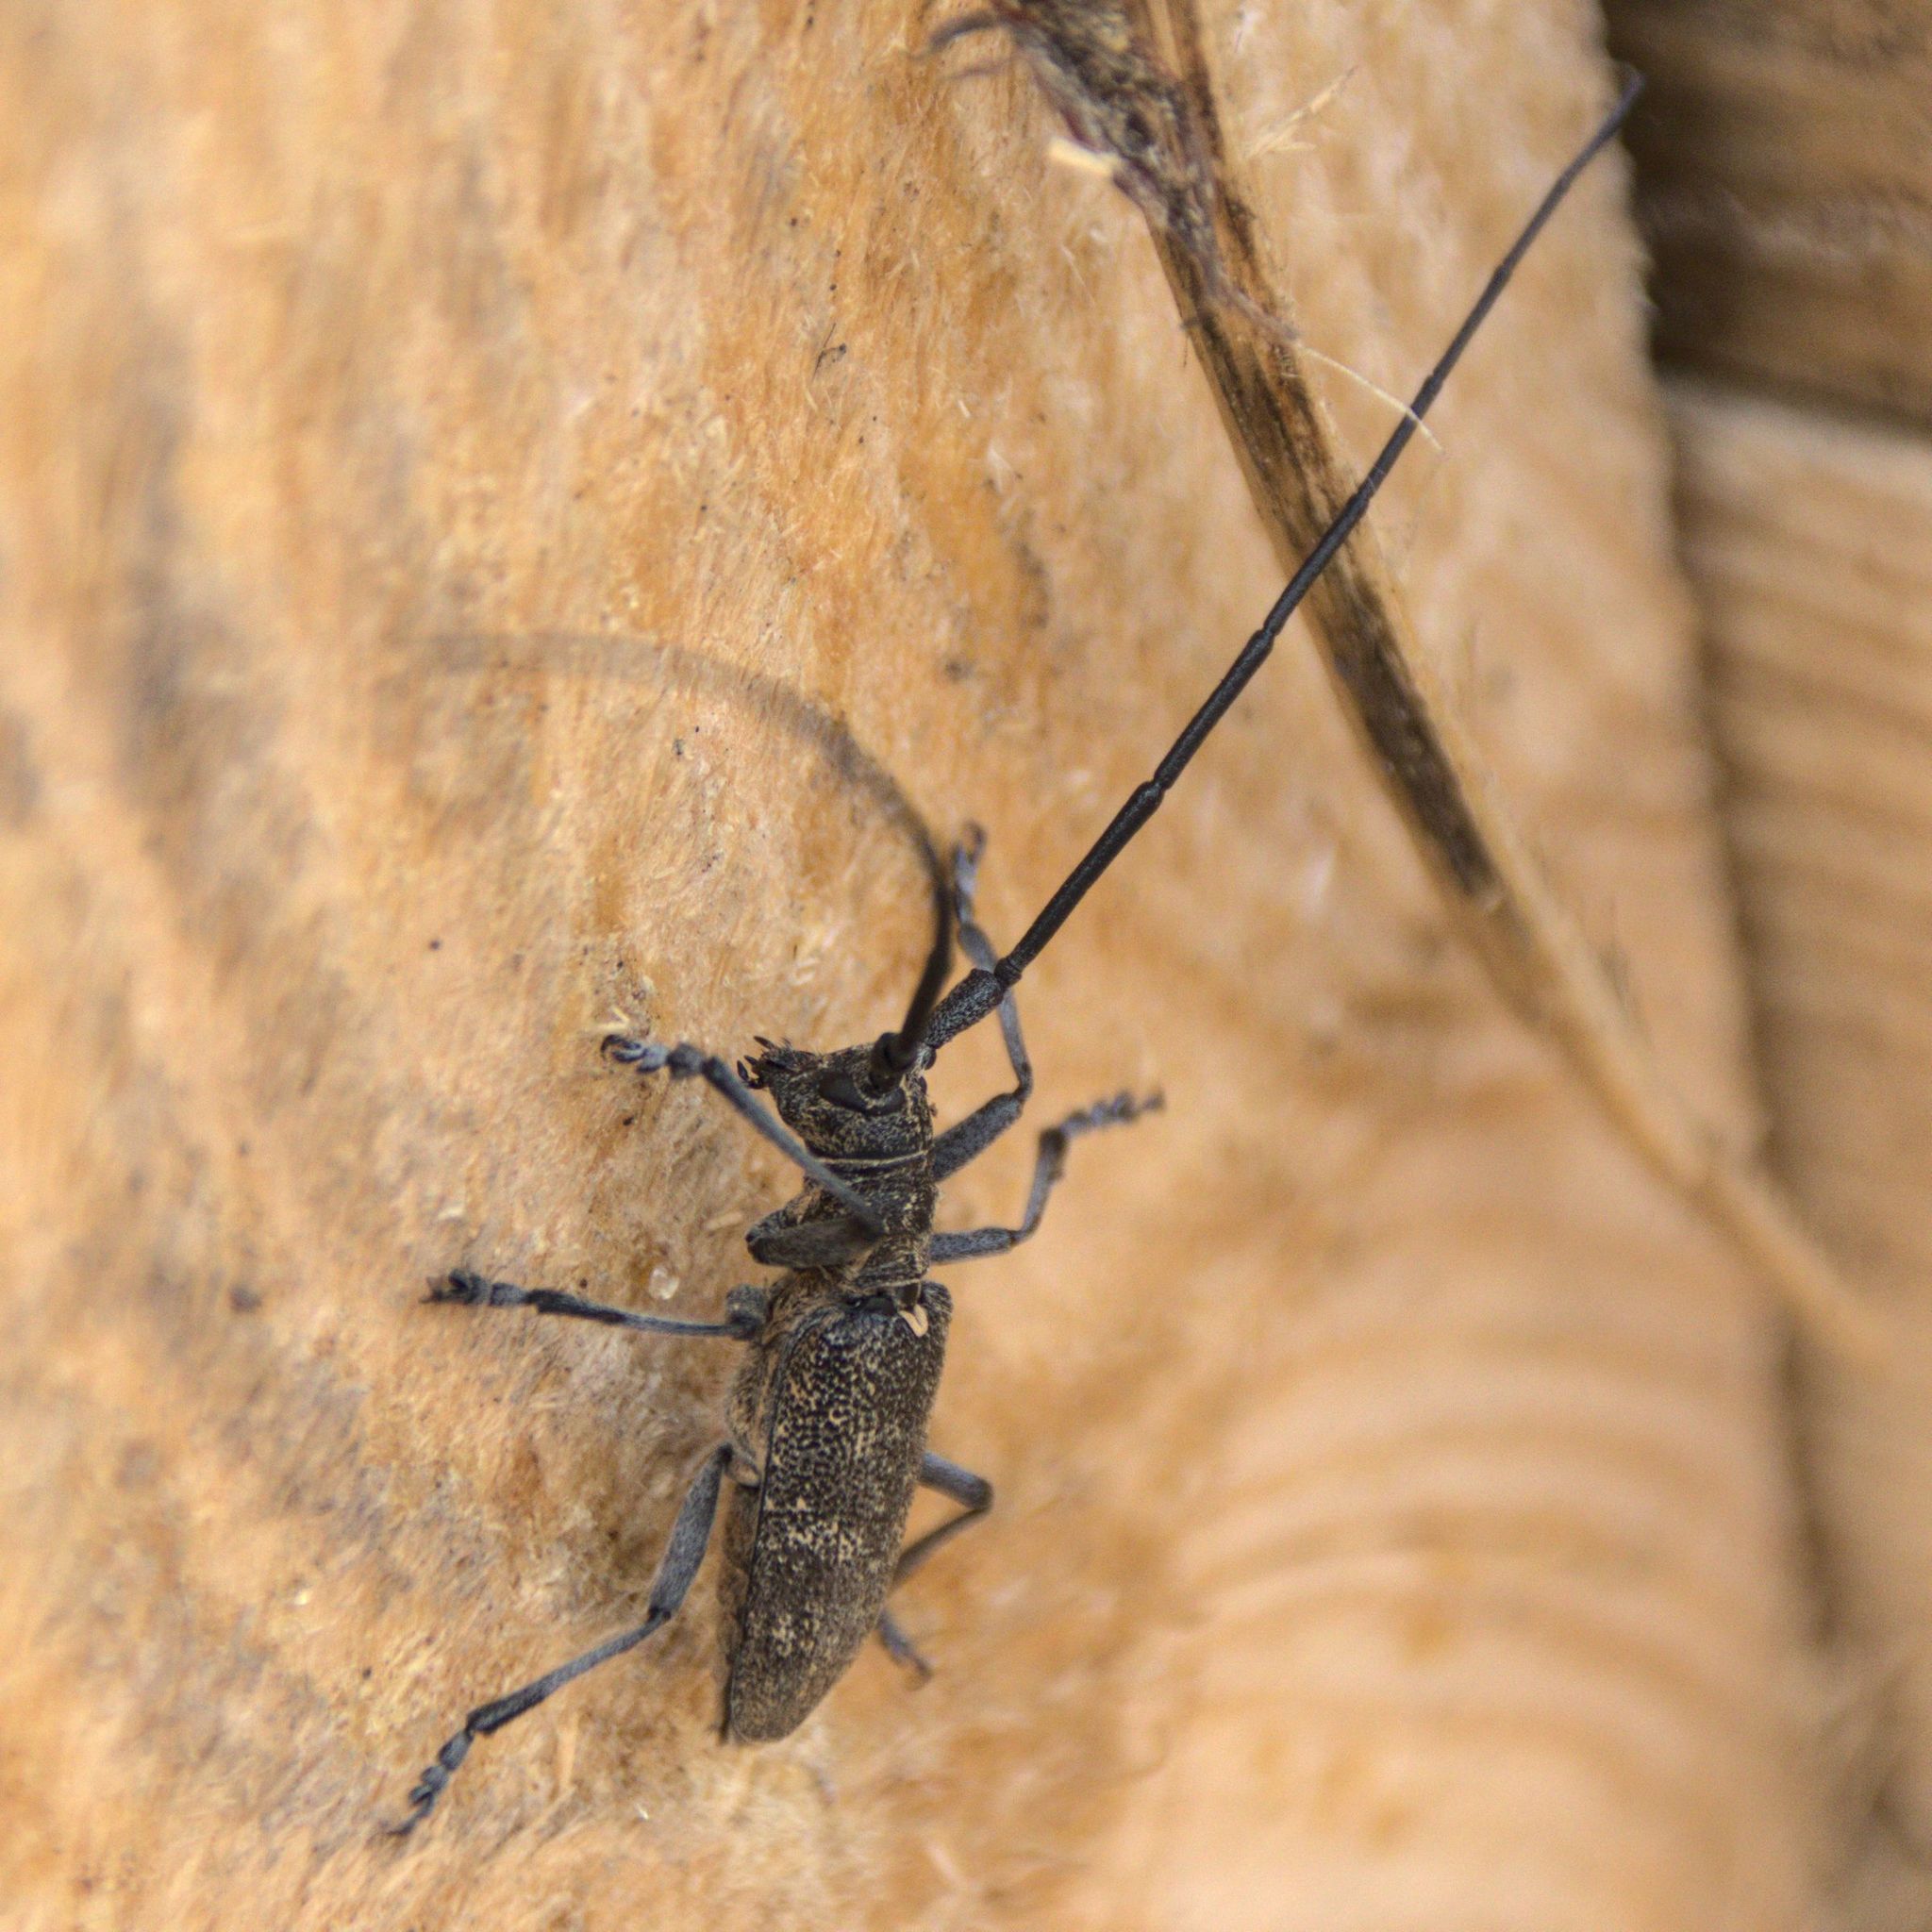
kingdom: Animalia
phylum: Arthropoda
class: Insecta
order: Coleoptera
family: Cerambycidae
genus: Monochamus
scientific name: Monochamus galloprovincialis
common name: Pine sawyer
